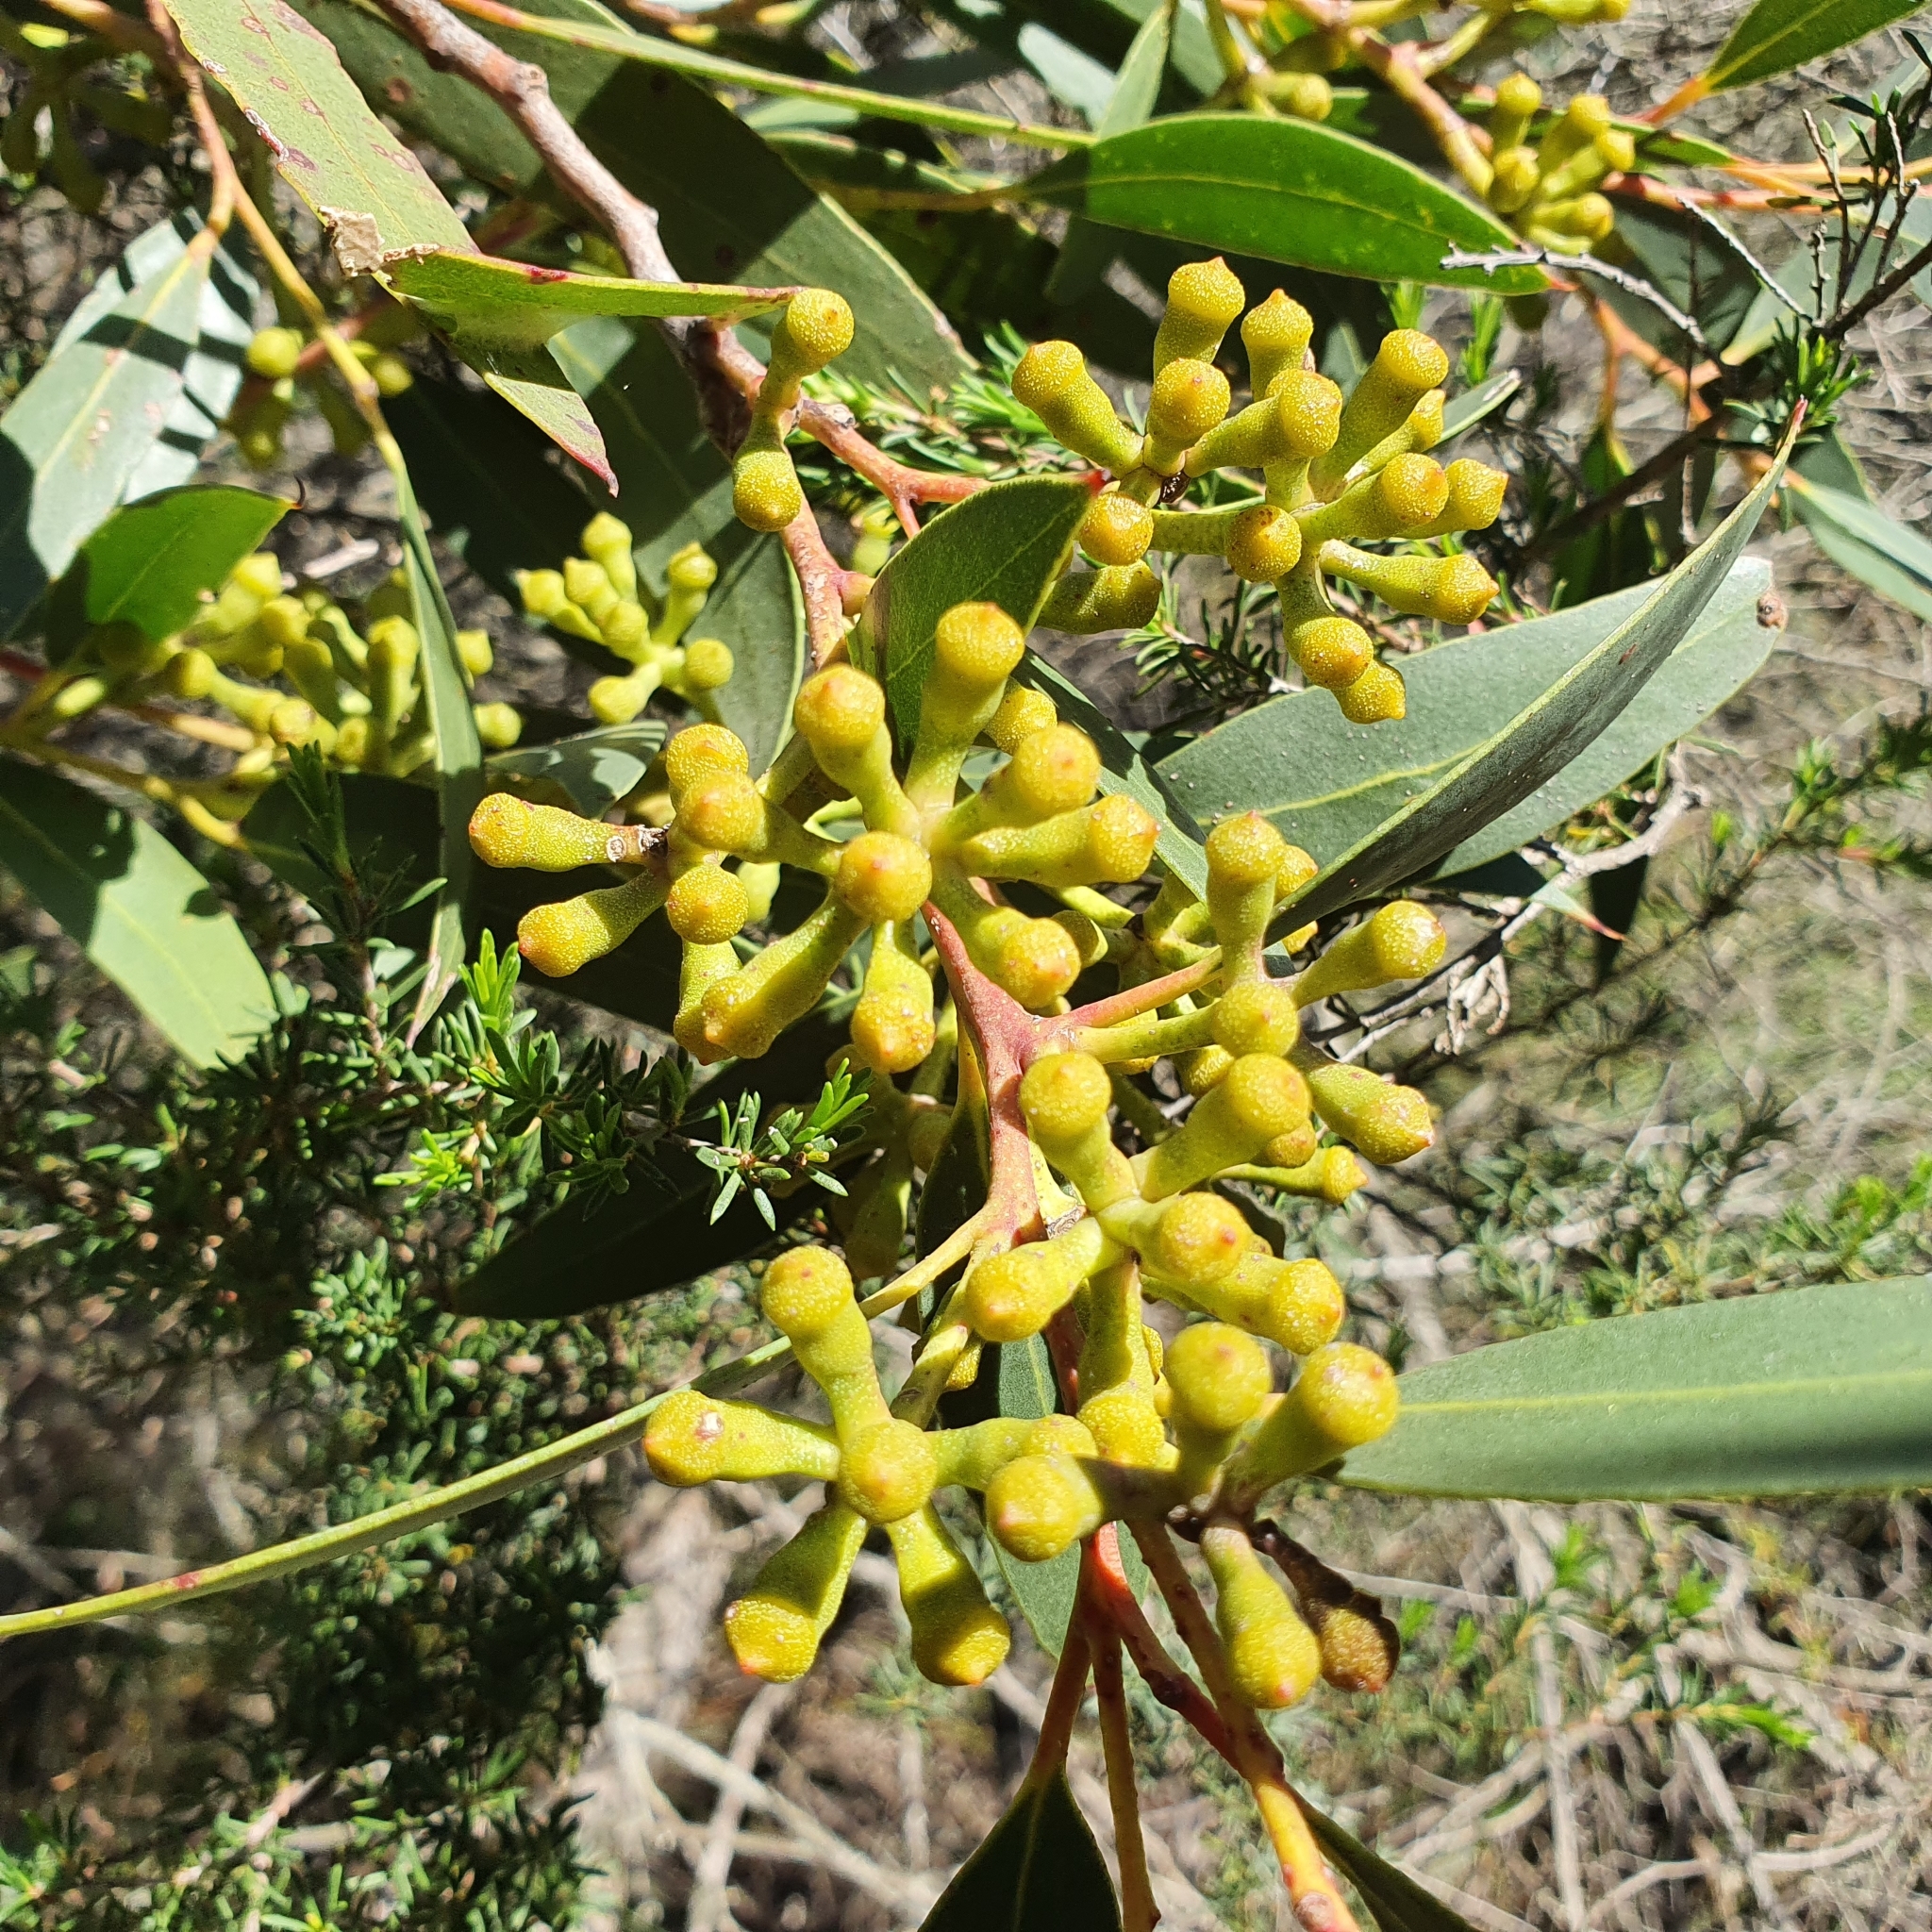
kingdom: Plantae
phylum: Tracheophyta
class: Magnoliopsida
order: Myrtales
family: Myrtaceae
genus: Eucalyptus
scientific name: Eucalyptus burgessiana
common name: Falconbridge mallee-ash
